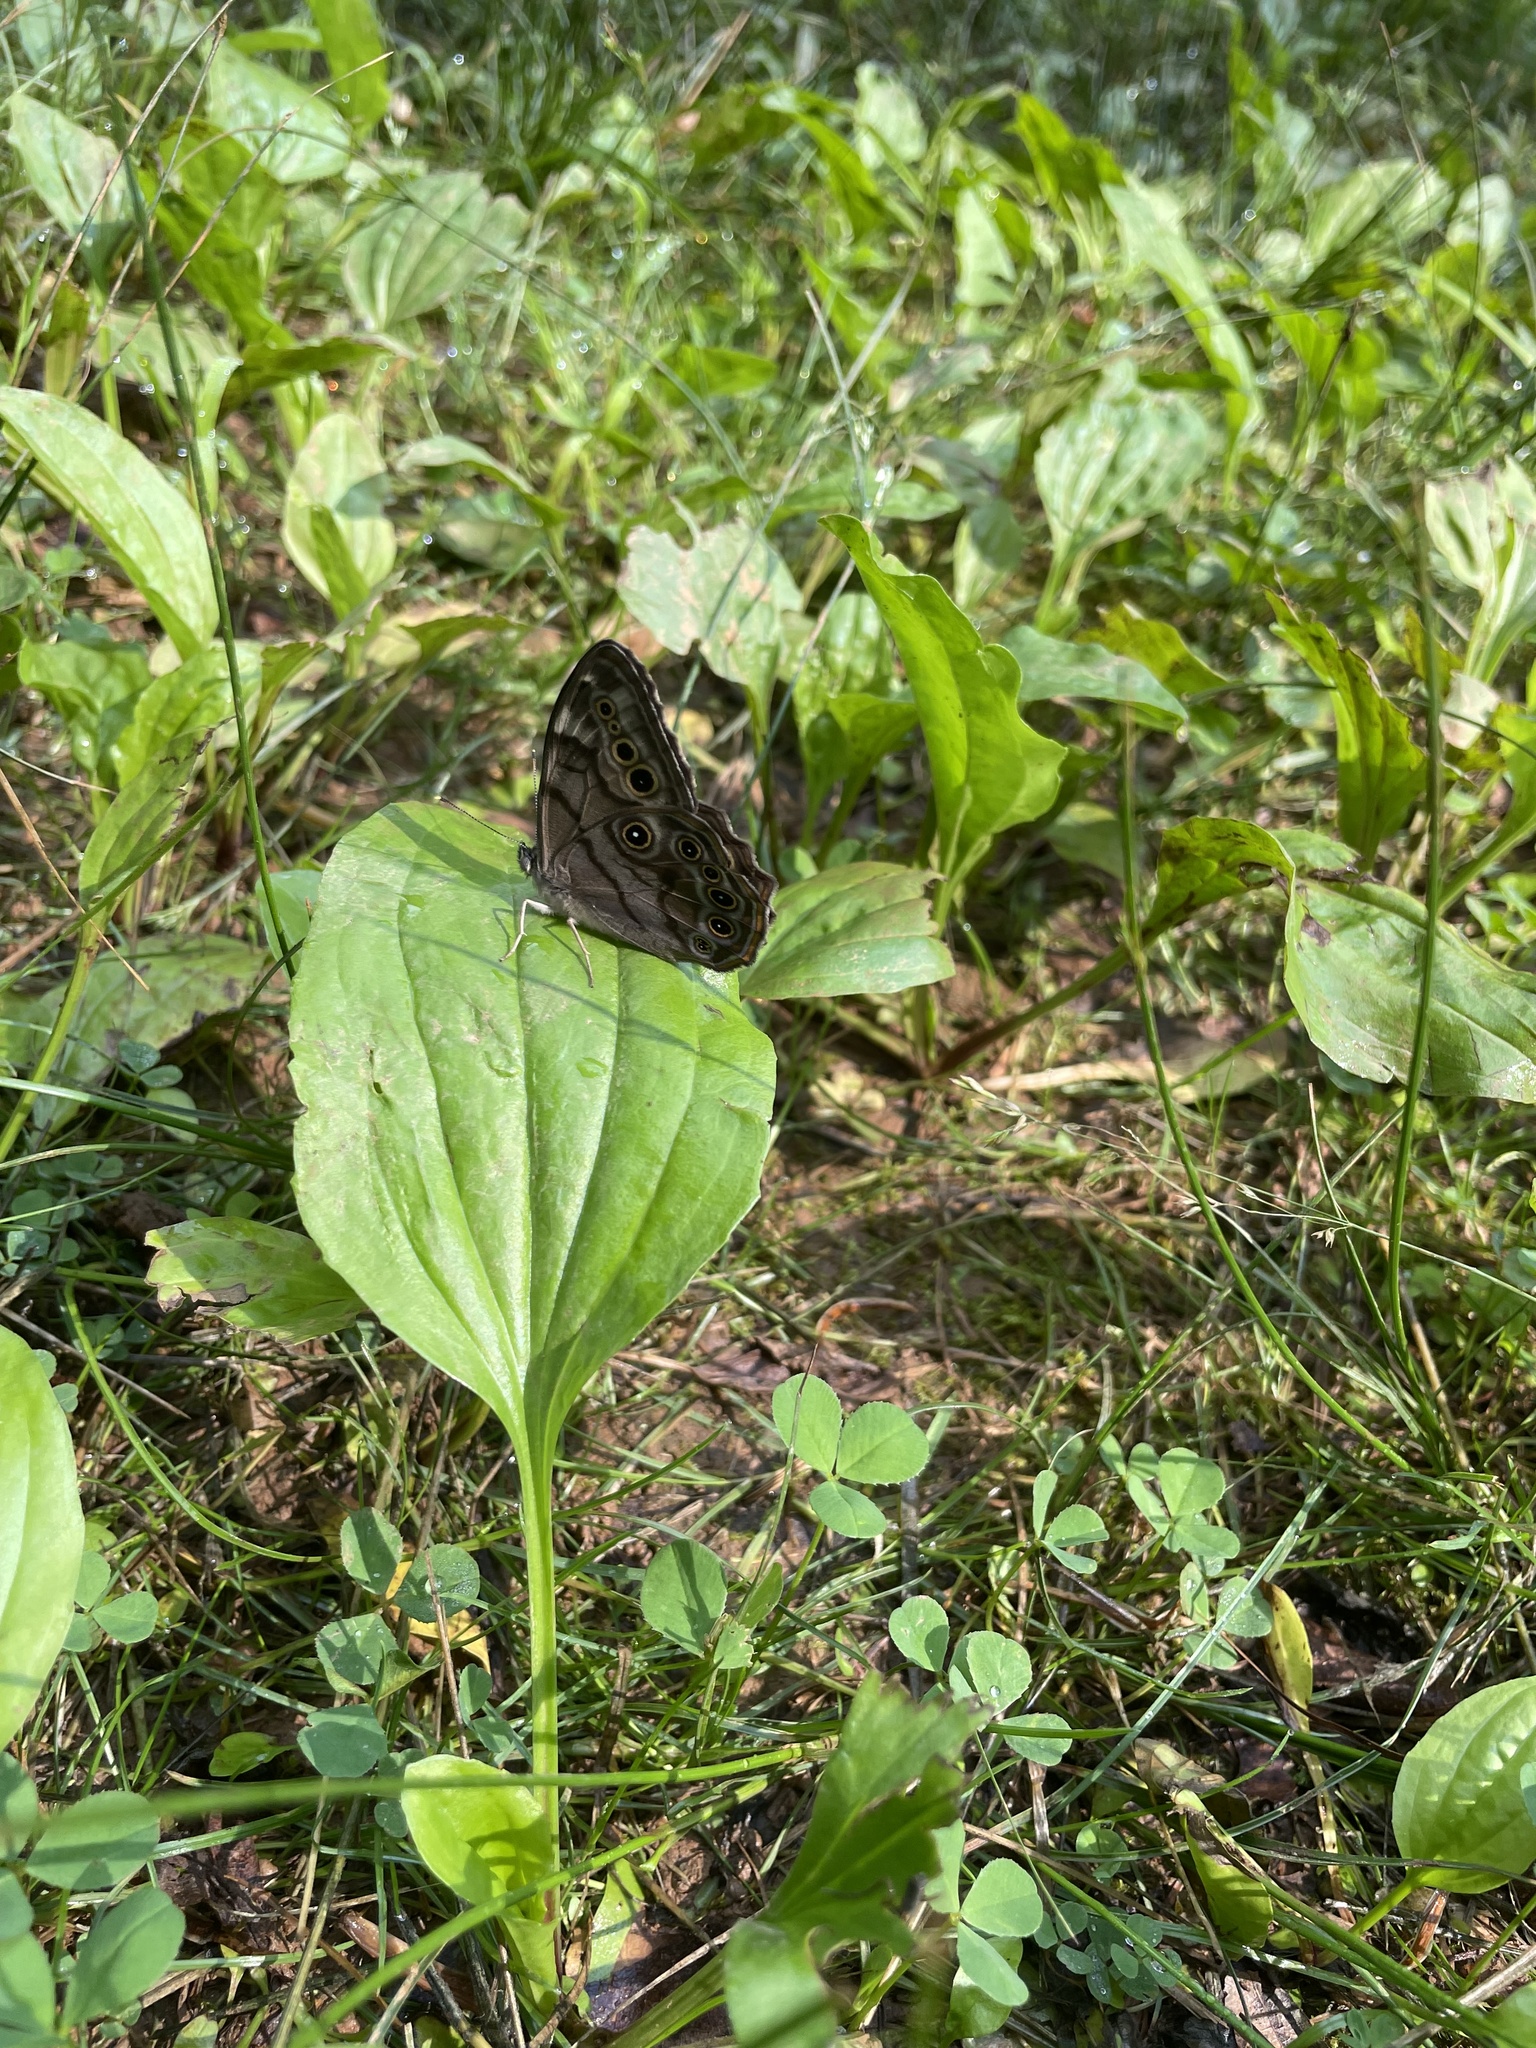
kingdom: Animalia
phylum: Arthropoda
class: Insecta
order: Lepidoptera
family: Nymphalidae
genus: Lethe
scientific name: Lethe anthedon
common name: Northern pearly-eye
